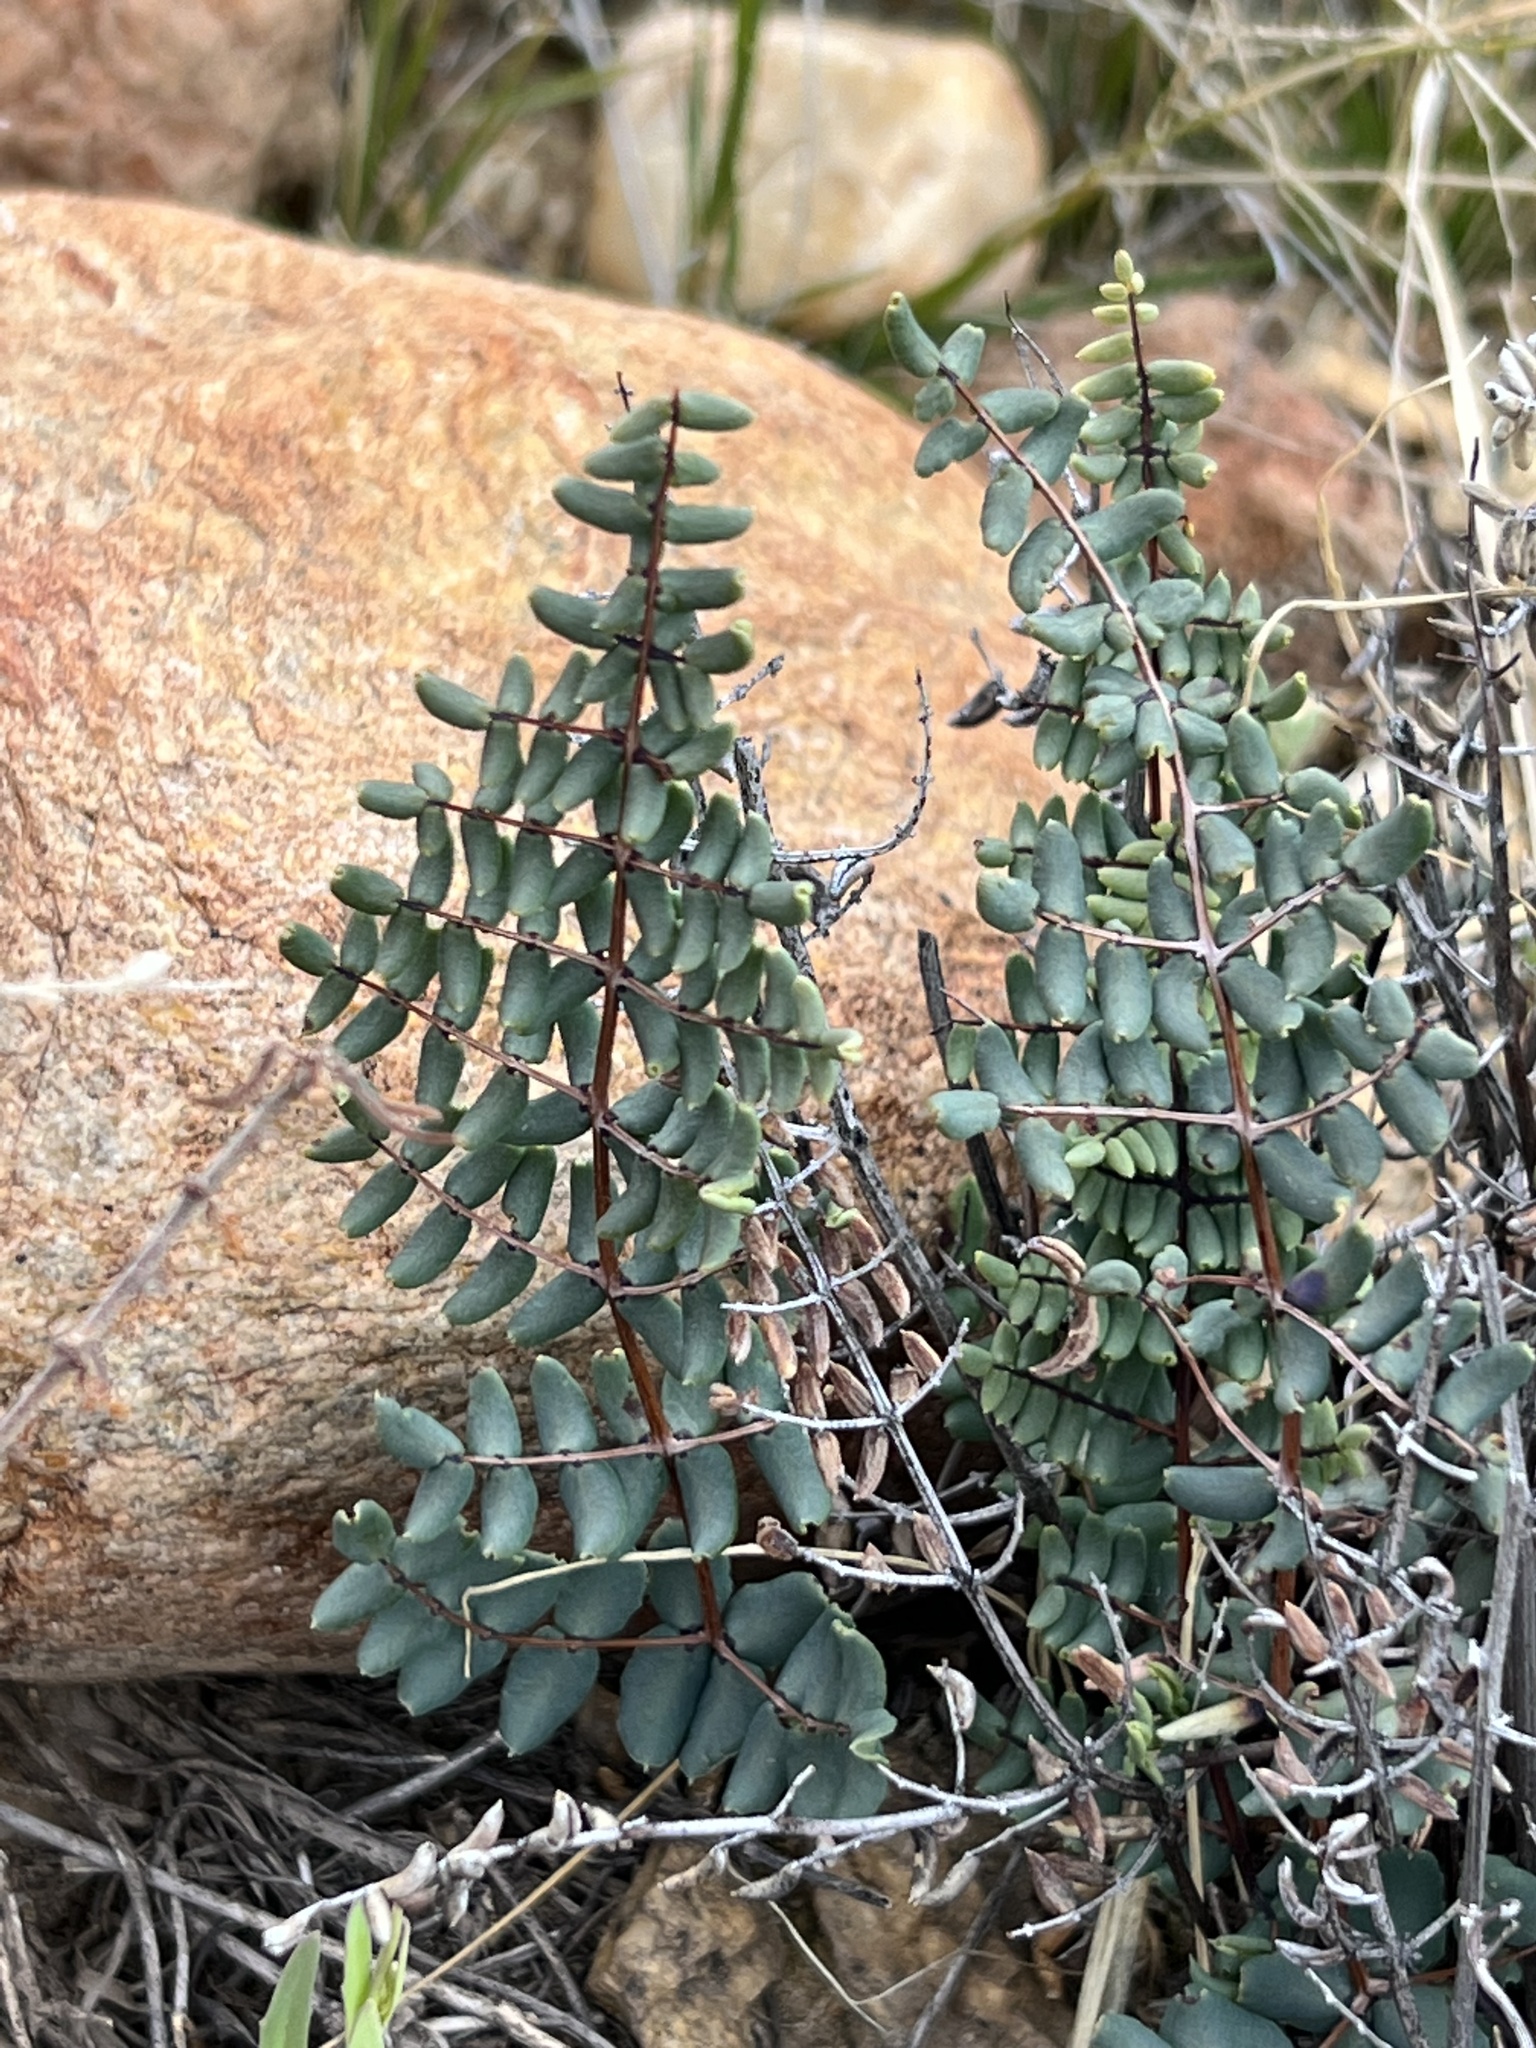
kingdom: Plantae
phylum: Tracheophyta
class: Polypodiopsida
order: Polypodiales
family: Pteridaceae
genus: Pellaea
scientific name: Pellaea truncata
